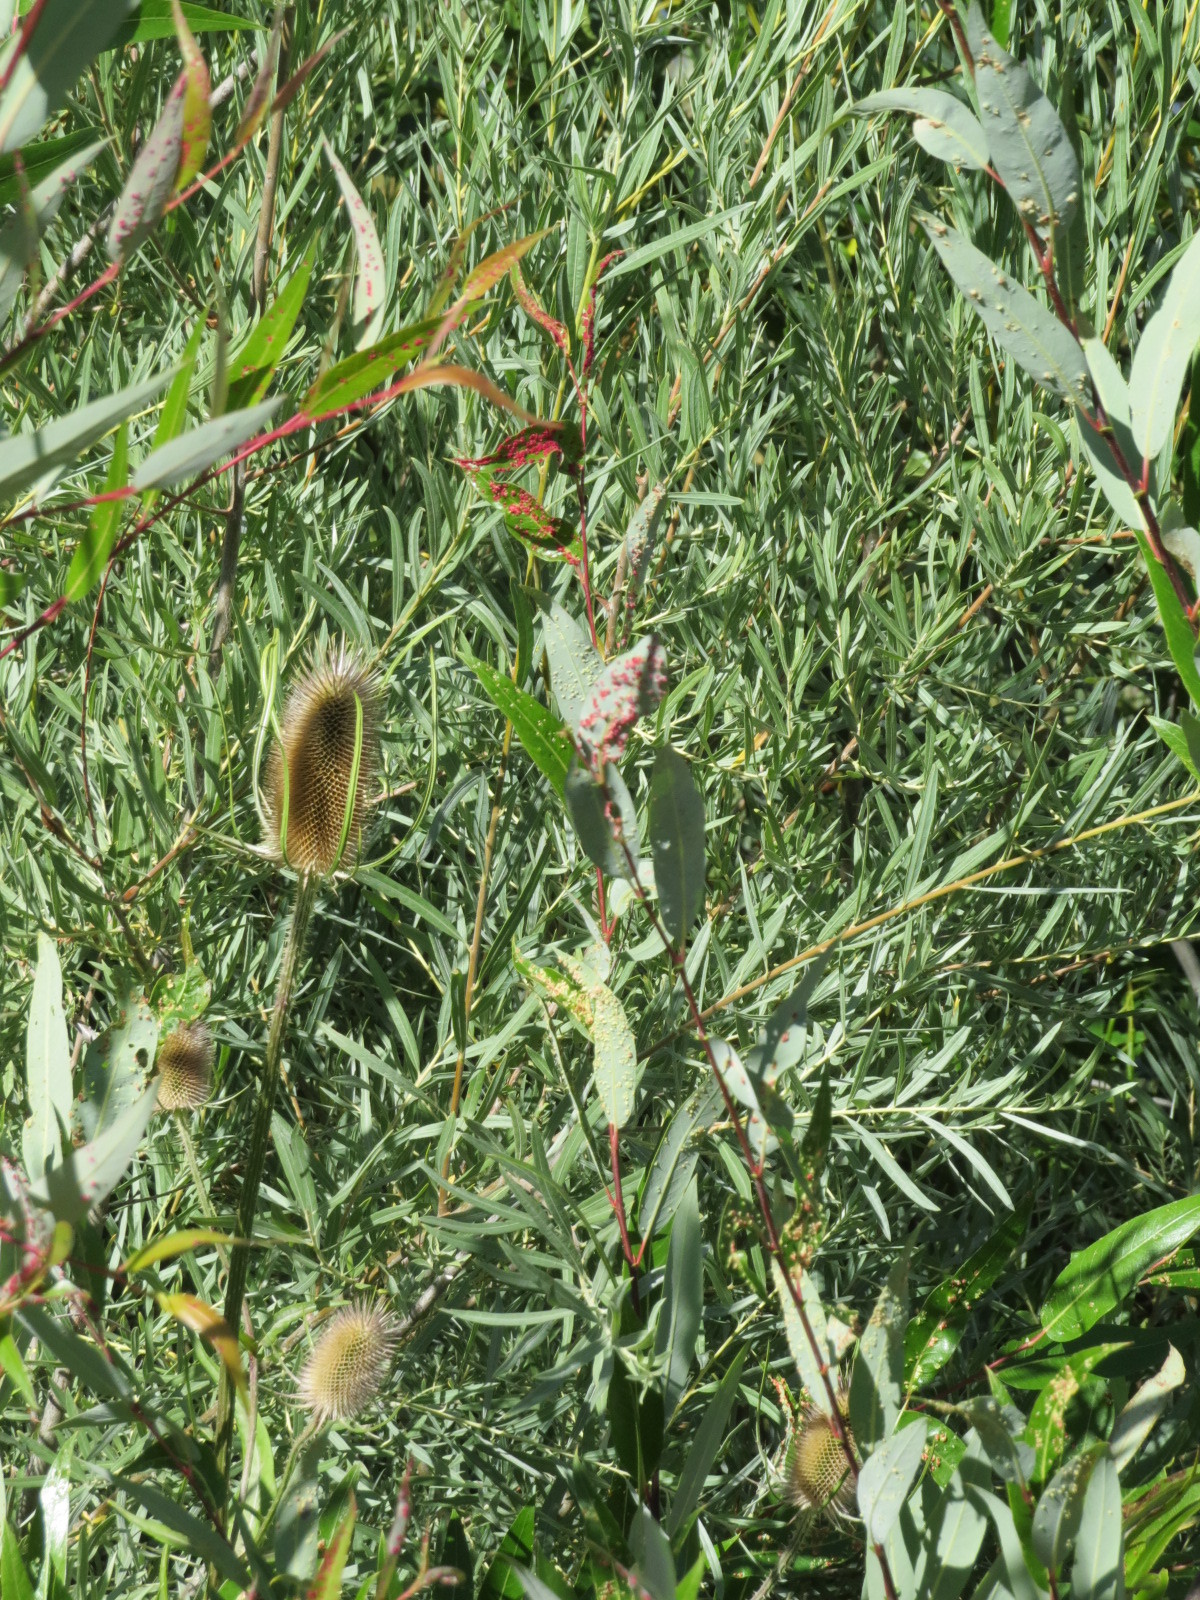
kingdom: Animalia
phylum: Arthropoda
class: Arachnida
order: Trombidiformes
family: Eriophyidae
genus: Aculus
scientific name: Aculus tetanothrix
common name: Willow bead gall mite
